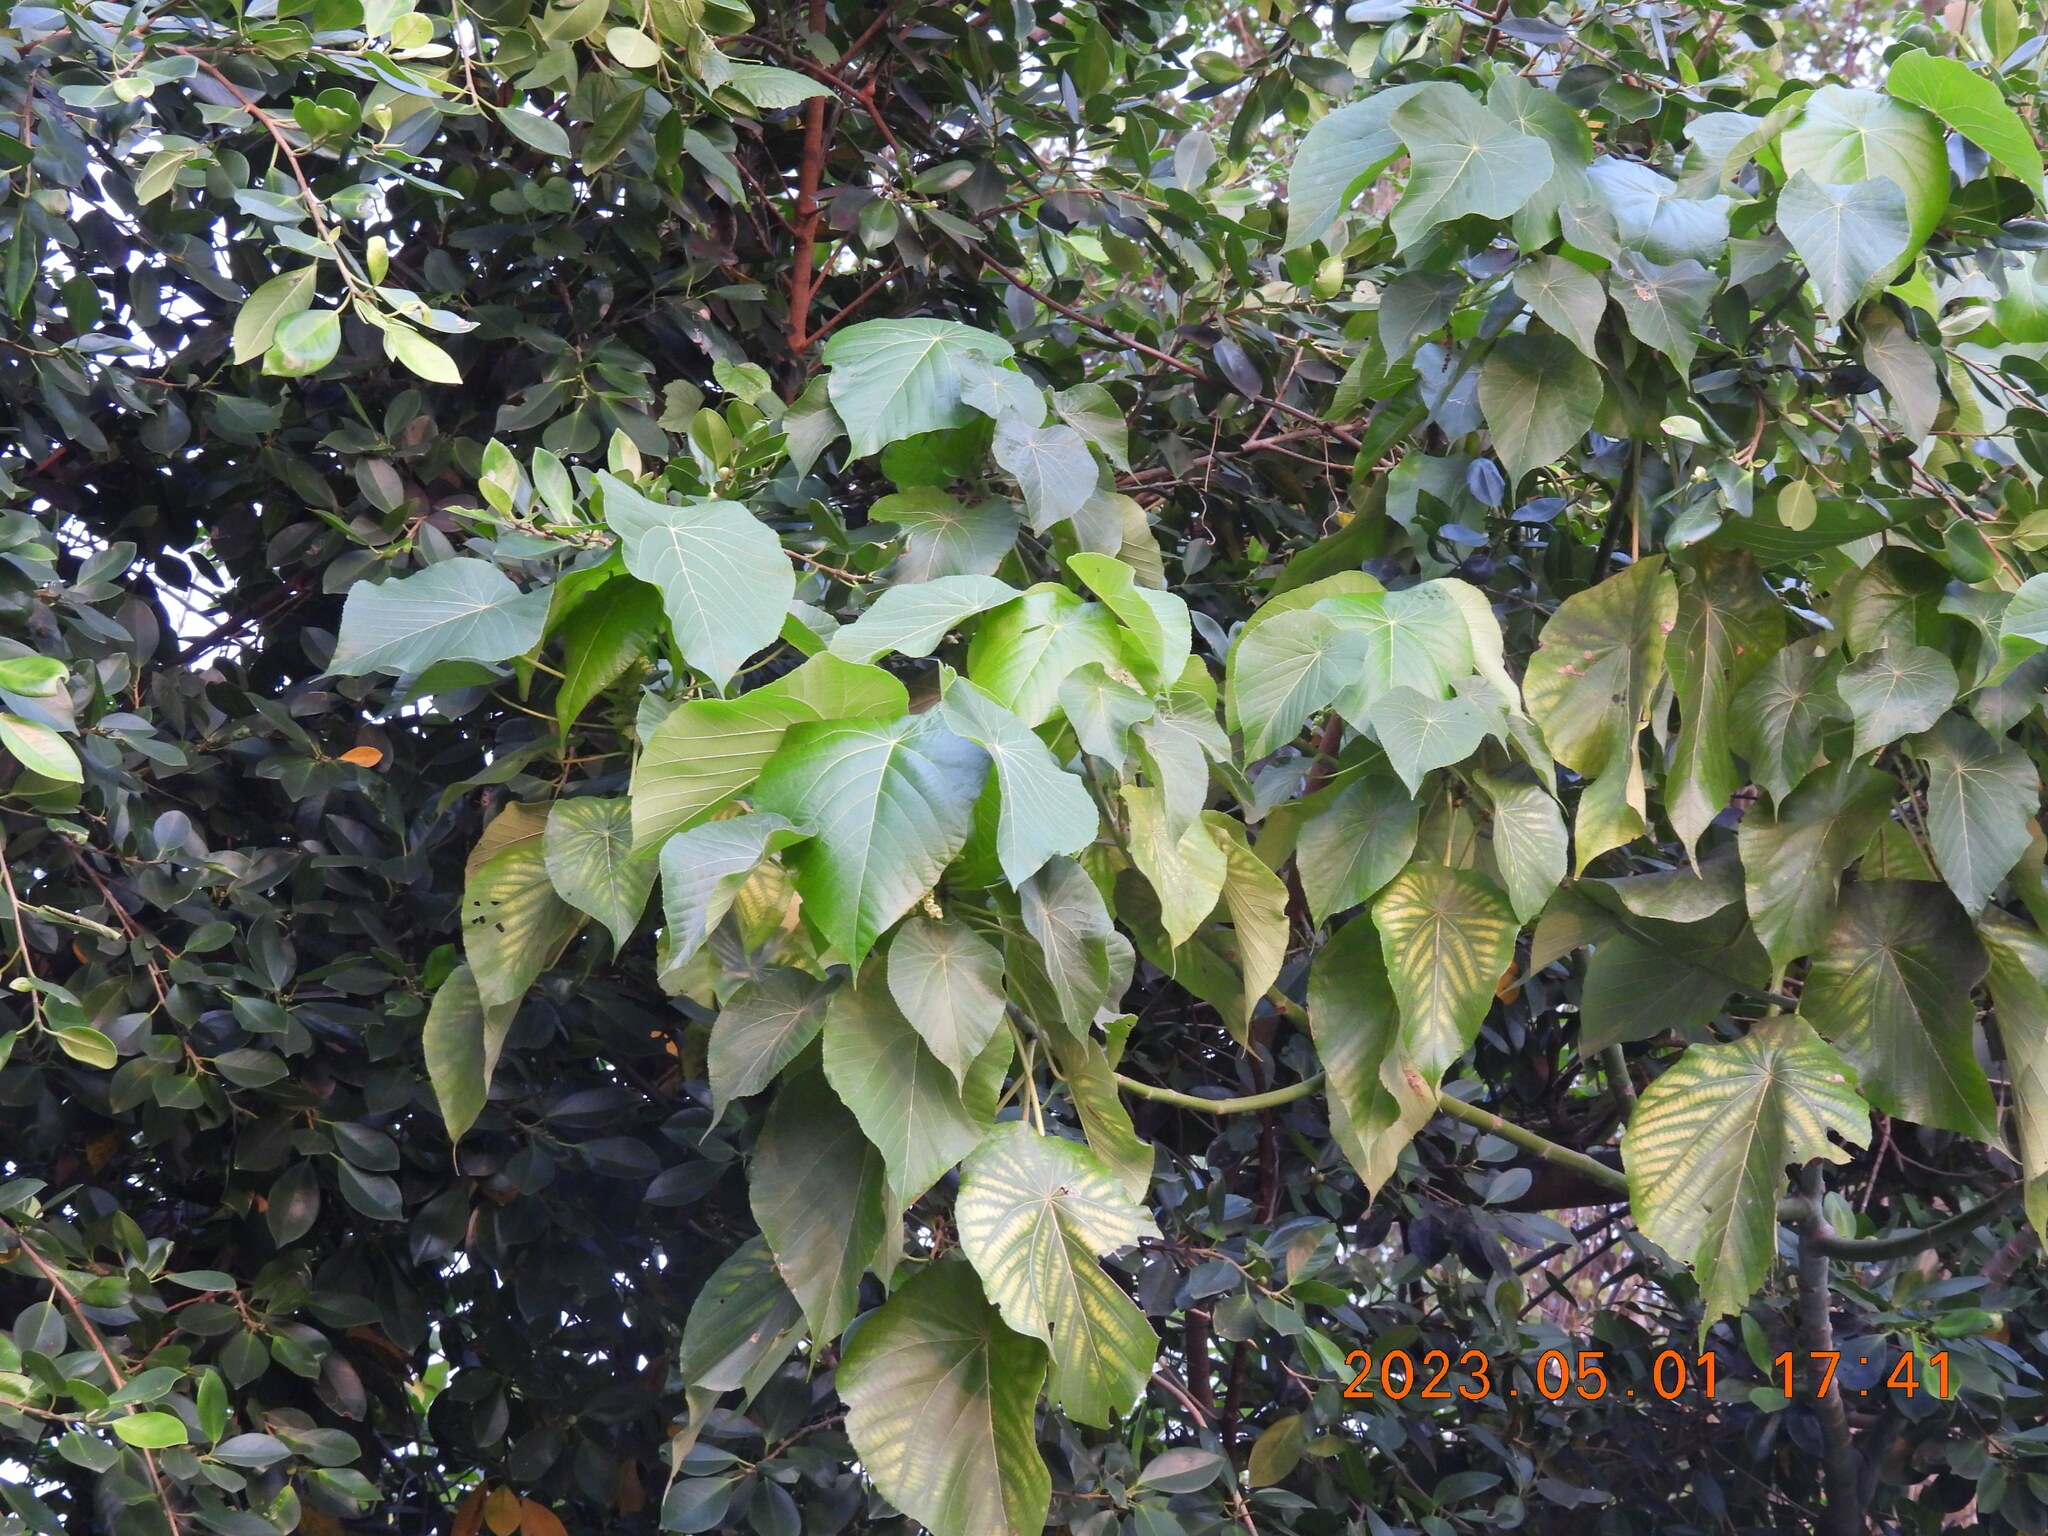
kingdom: Plantae
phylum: Tracheophyta
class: Magnoliopsida
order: Malpighiales
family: Euphorbiaceae
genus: Macaranga
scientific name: Macaranga tanarius
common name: Parasol leaf tree
